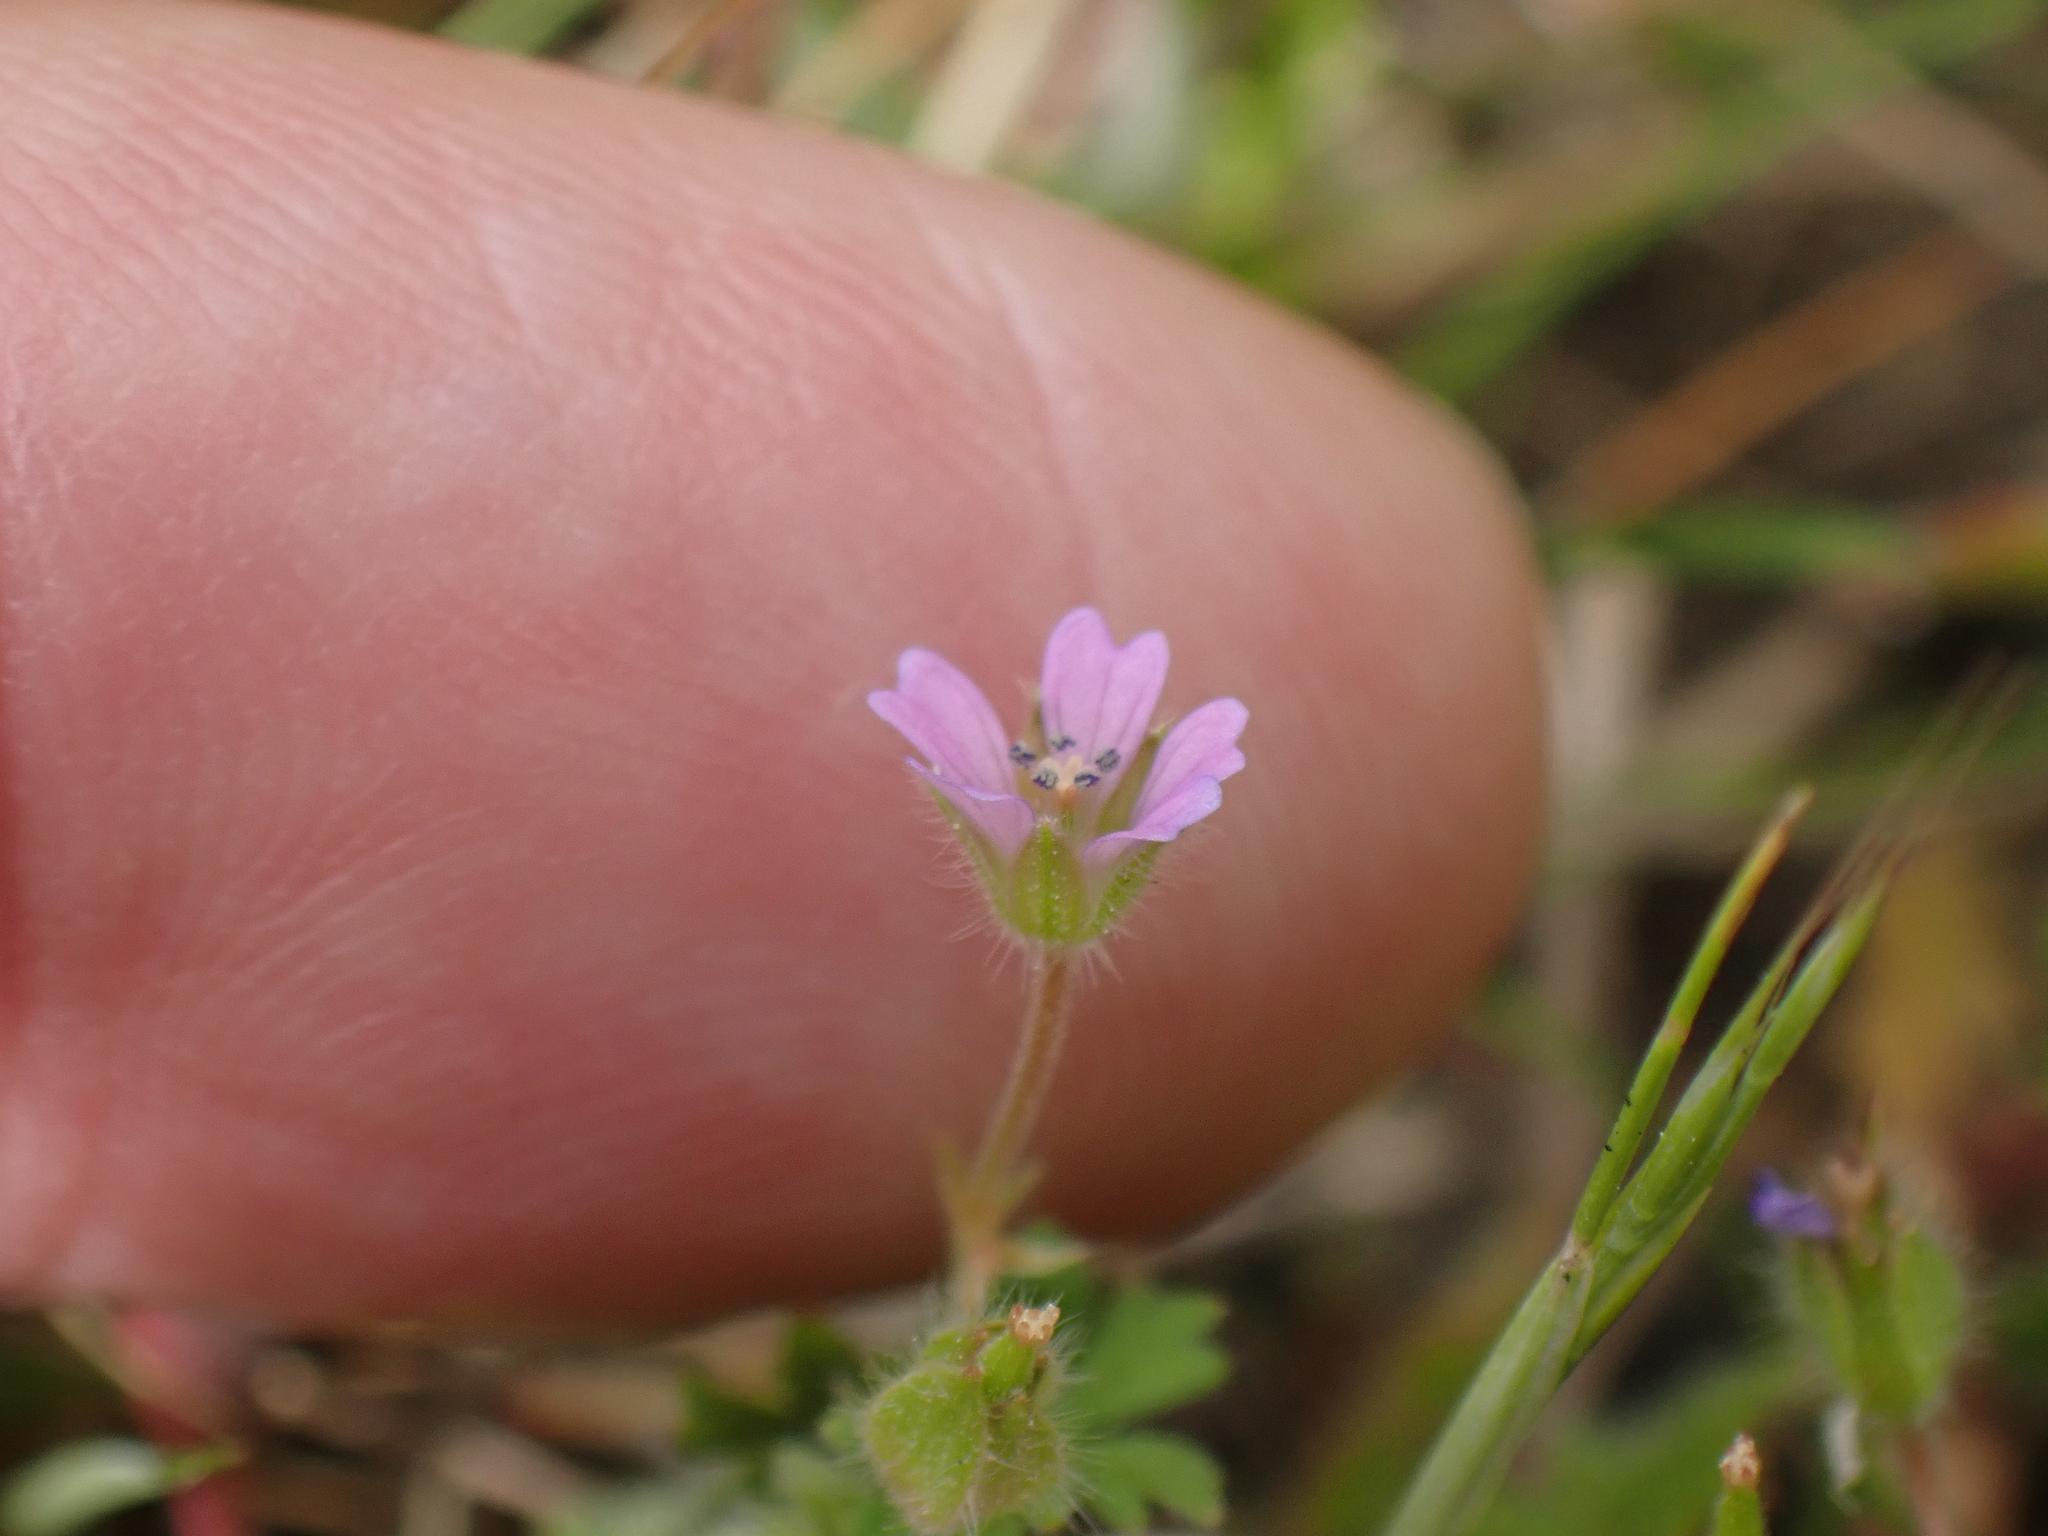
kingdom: Plantae
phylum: Tracheophyta
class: Magnoliopsida
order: Geraniales
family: Geraniaceae
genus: Geranium
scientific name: Geranium pusillum
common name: Small geranium
